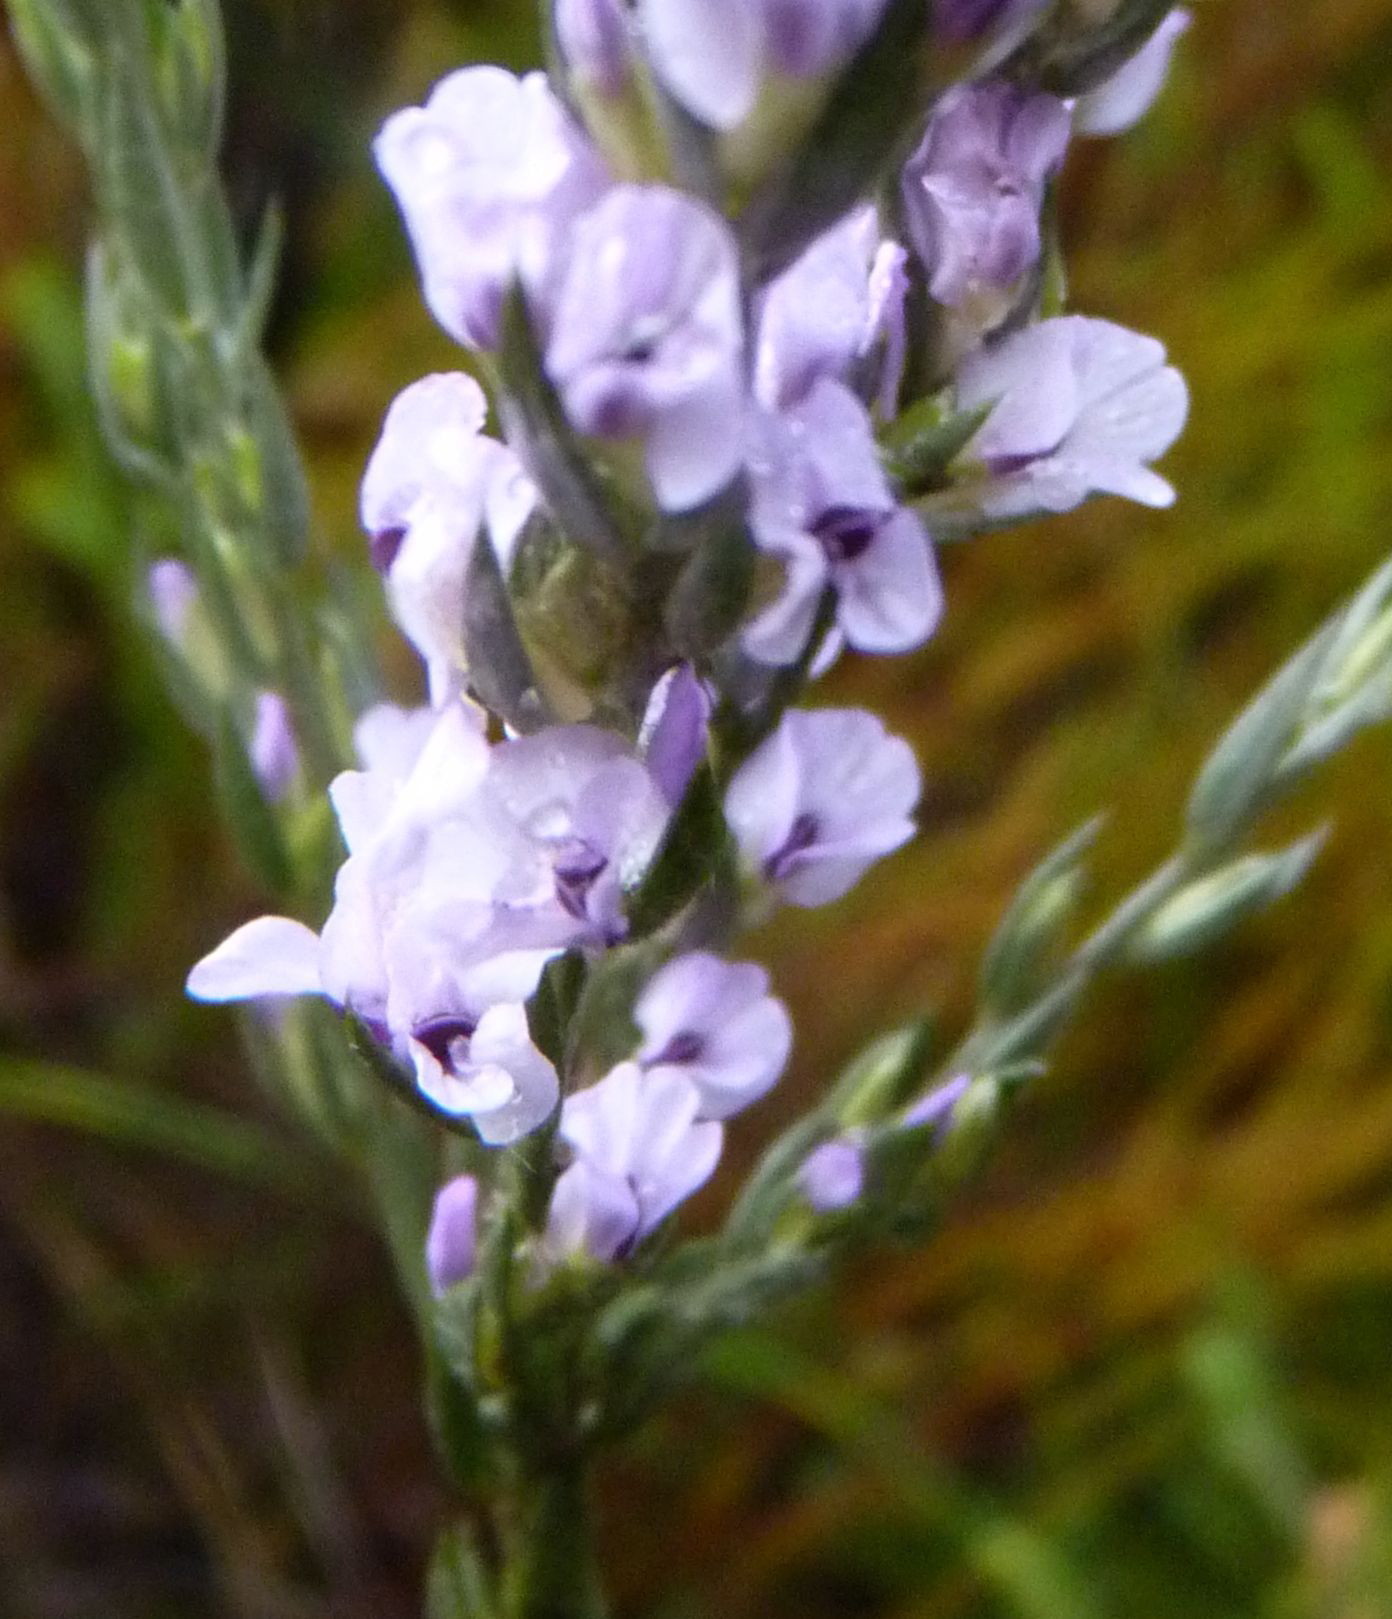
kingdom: Plantae
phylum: Tracheophyta
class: Magnoliopsida
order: Fabales
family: Fabaceae
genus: Amphithalea
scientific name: Amphithalea axillaris
